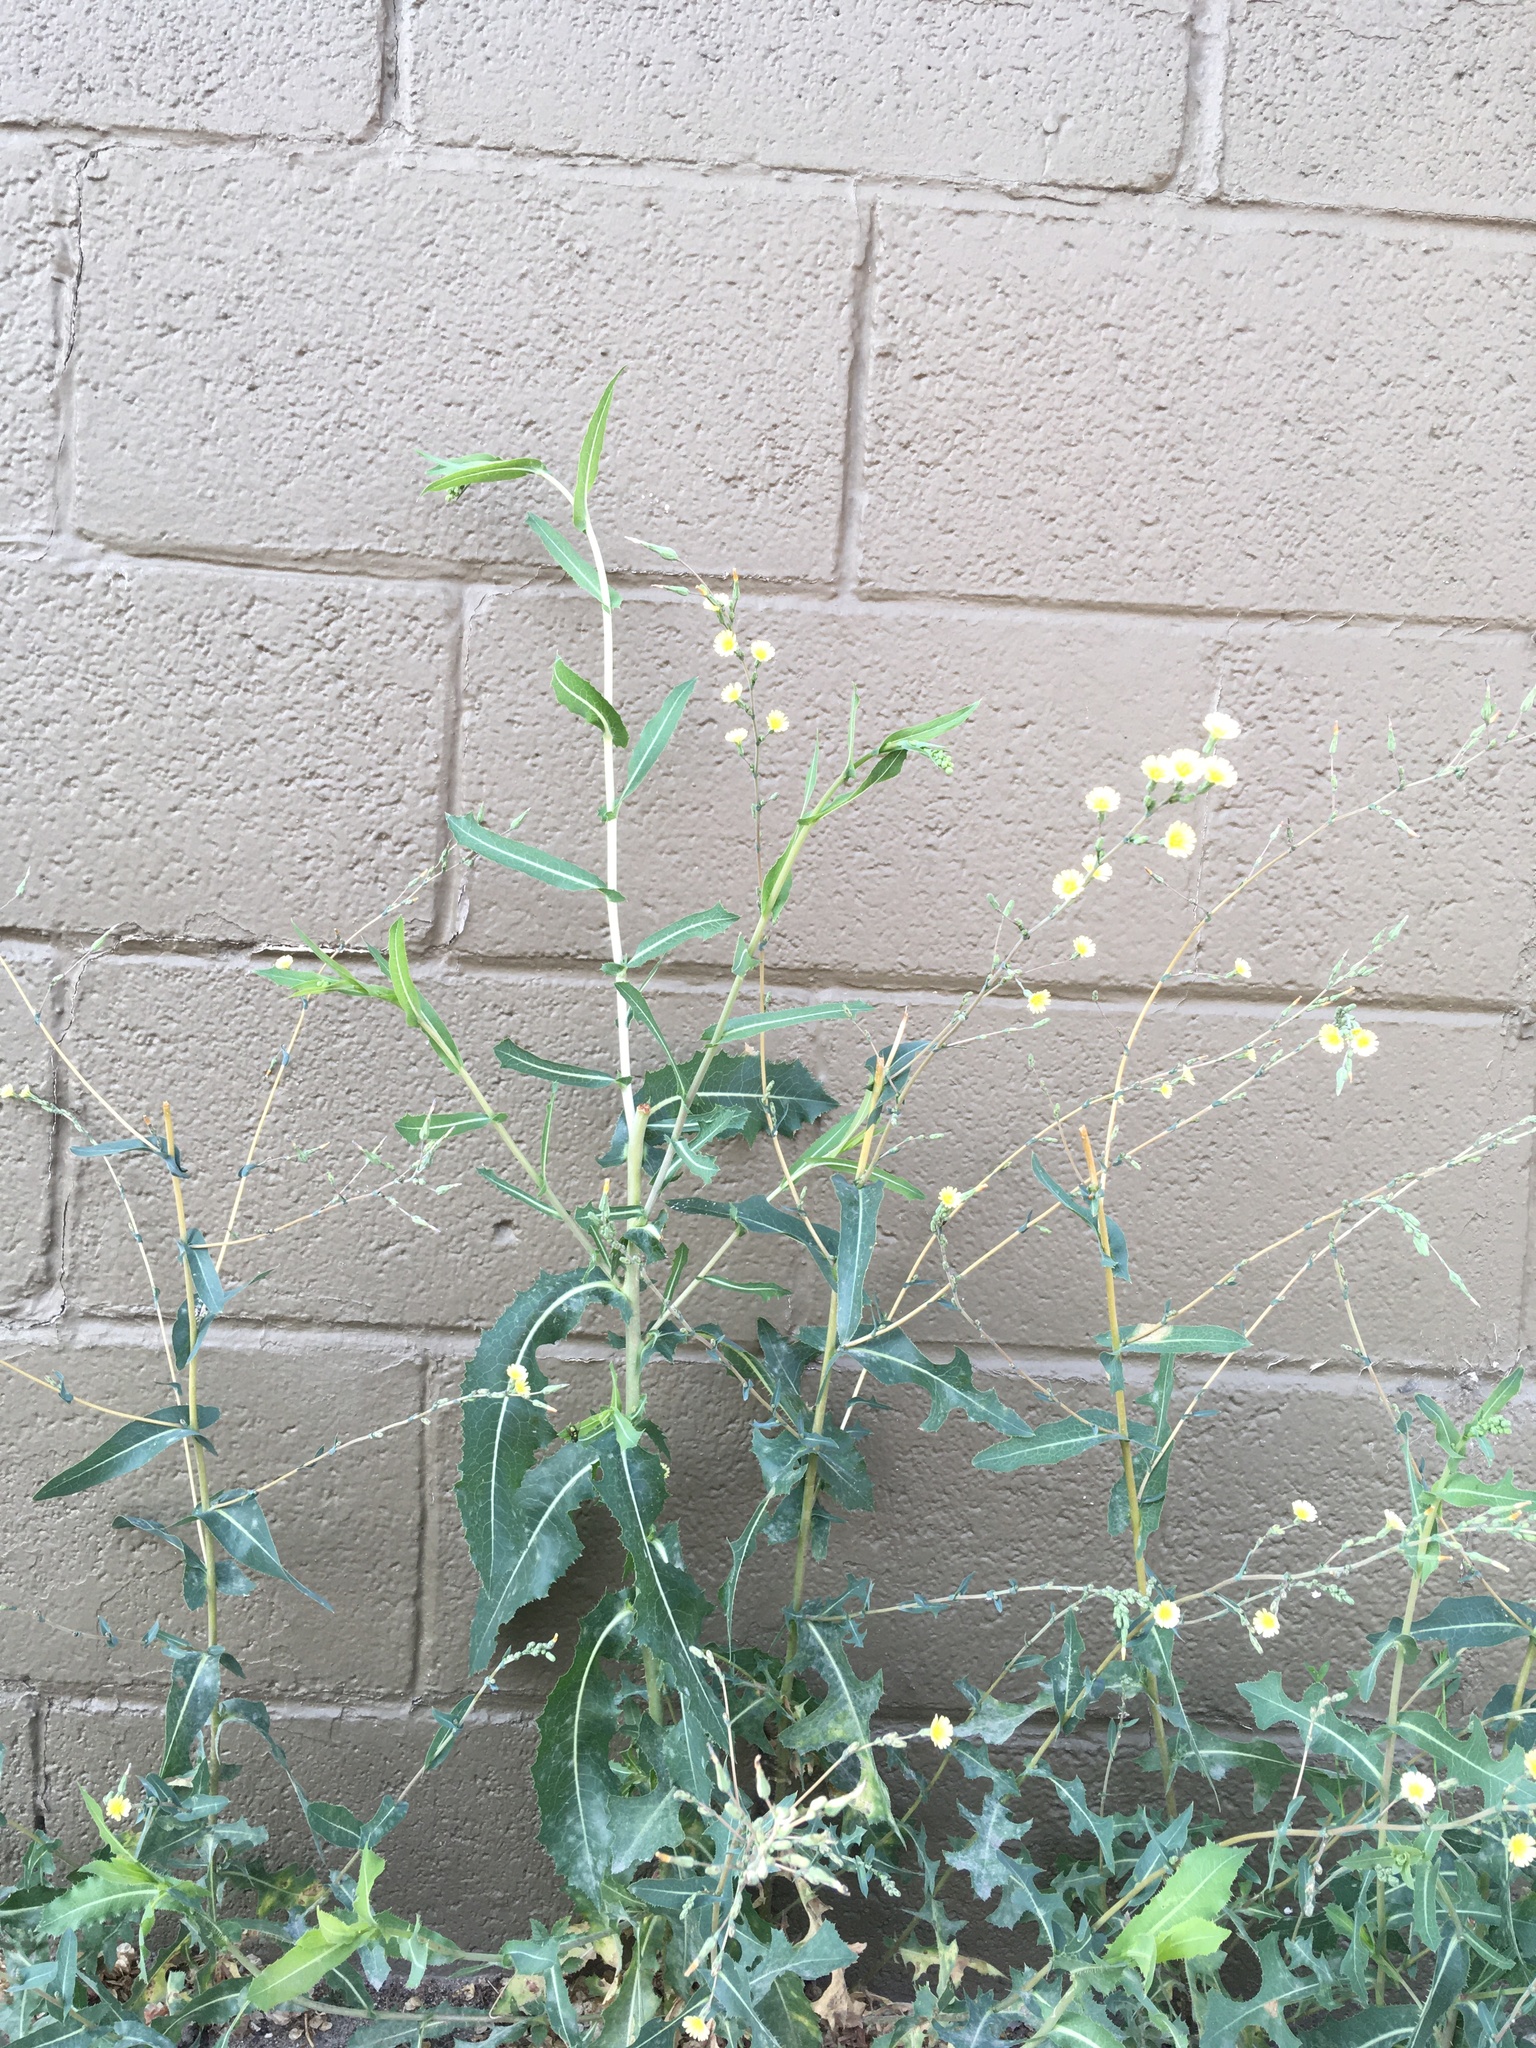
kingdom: Plantae
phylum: Tracheophyta
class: Magnoliopsida
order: Asterales
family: Asteraceae
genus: Lactuca
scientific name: Lactuca serriola
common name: Prickly lettuce
